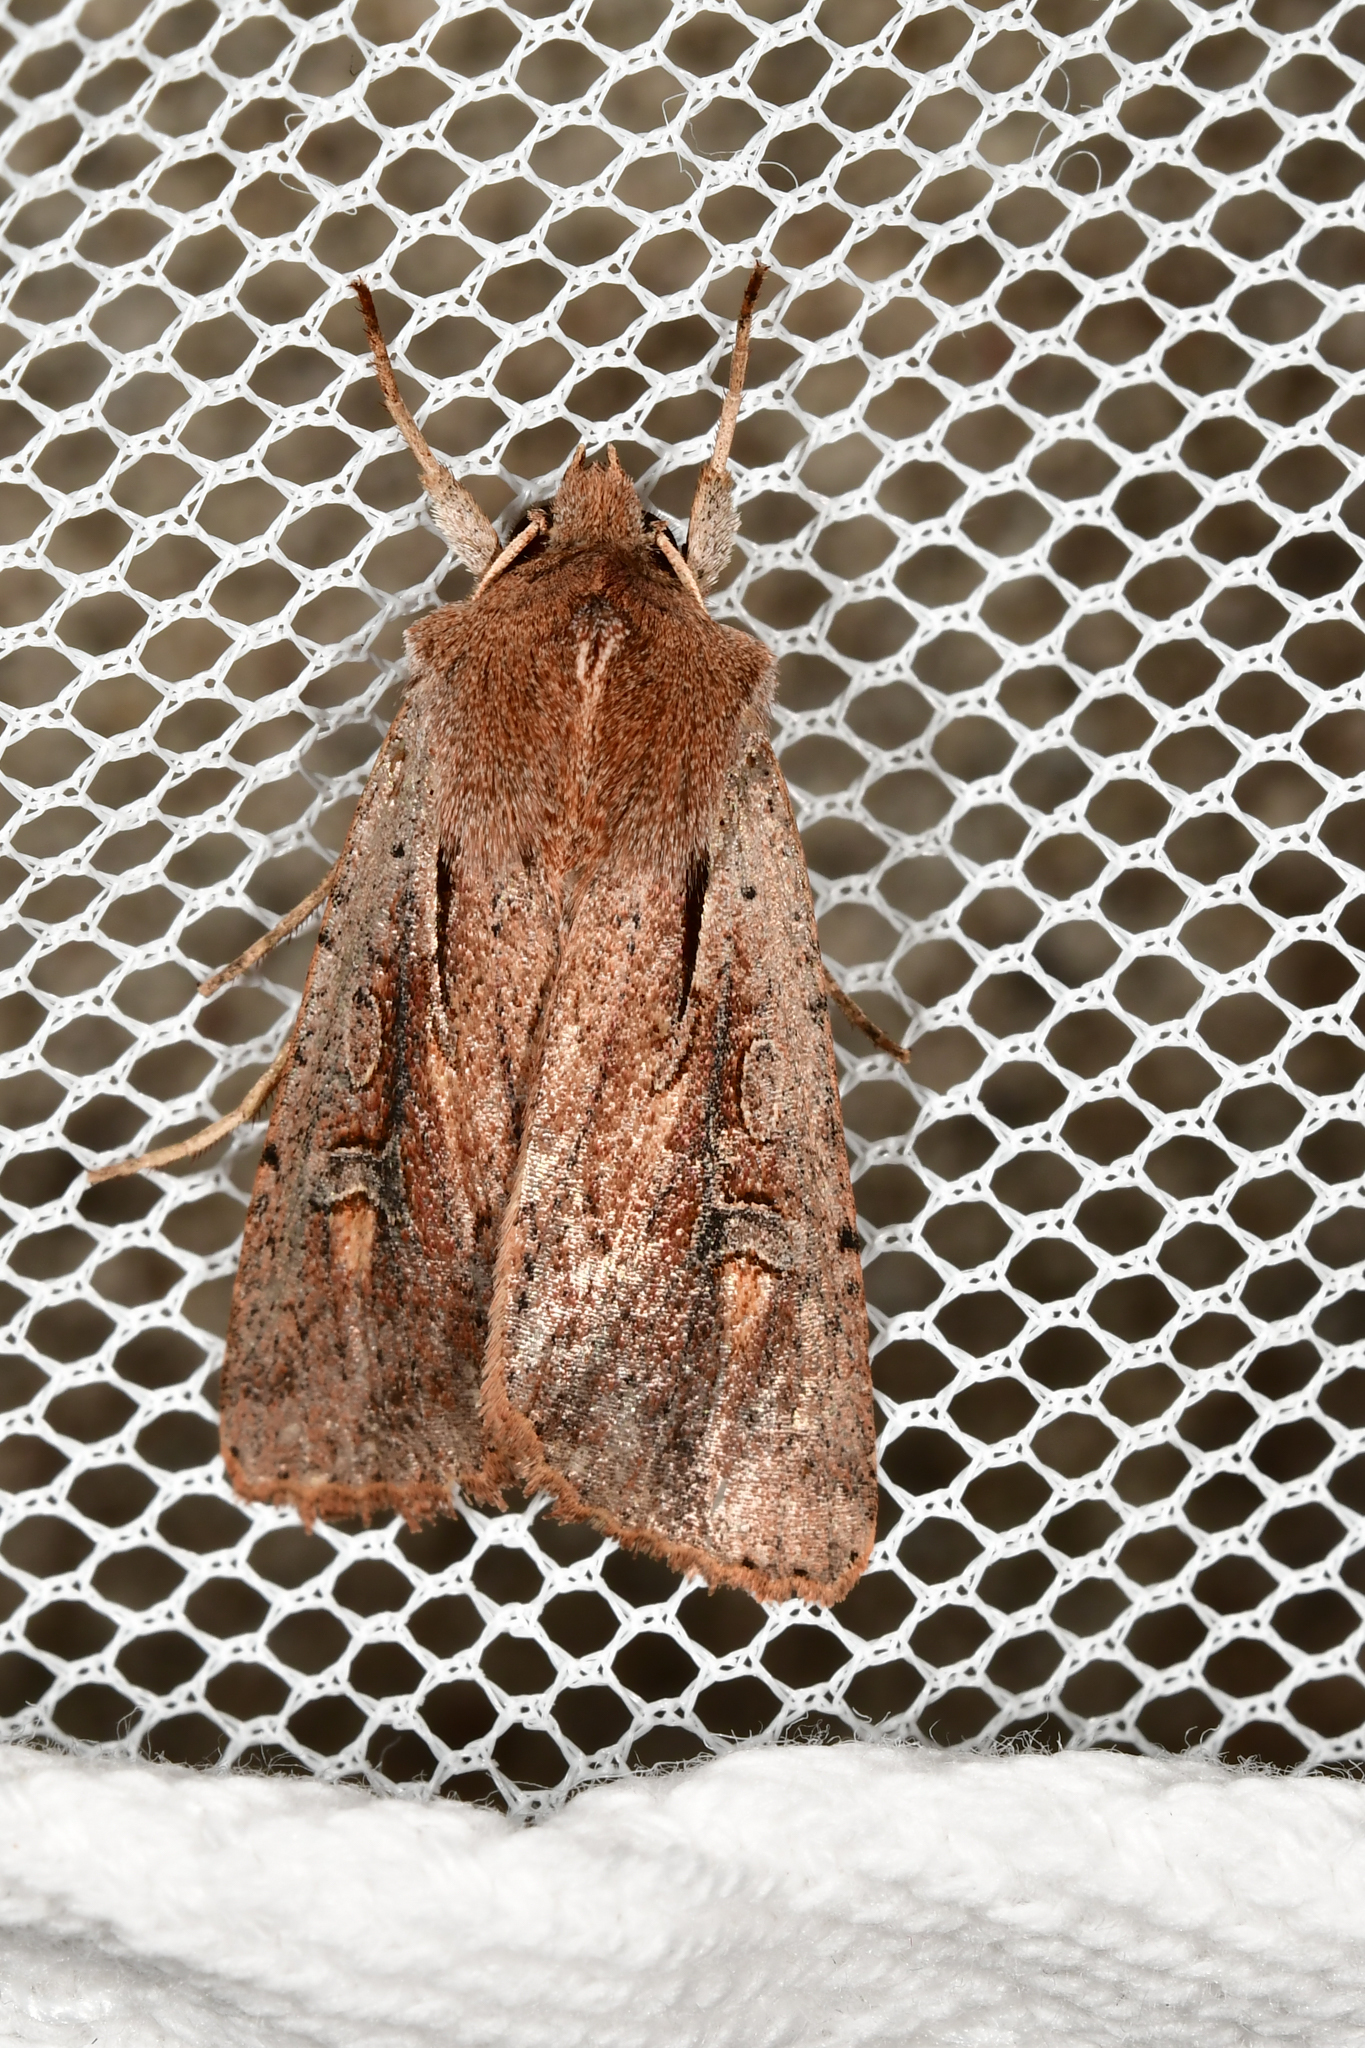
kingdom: Animalia
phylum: Arthropoda
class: Insecta
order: Lepidoptera
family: Noctuidae
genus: Ichneutica
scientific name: Ichneutica atristriga
